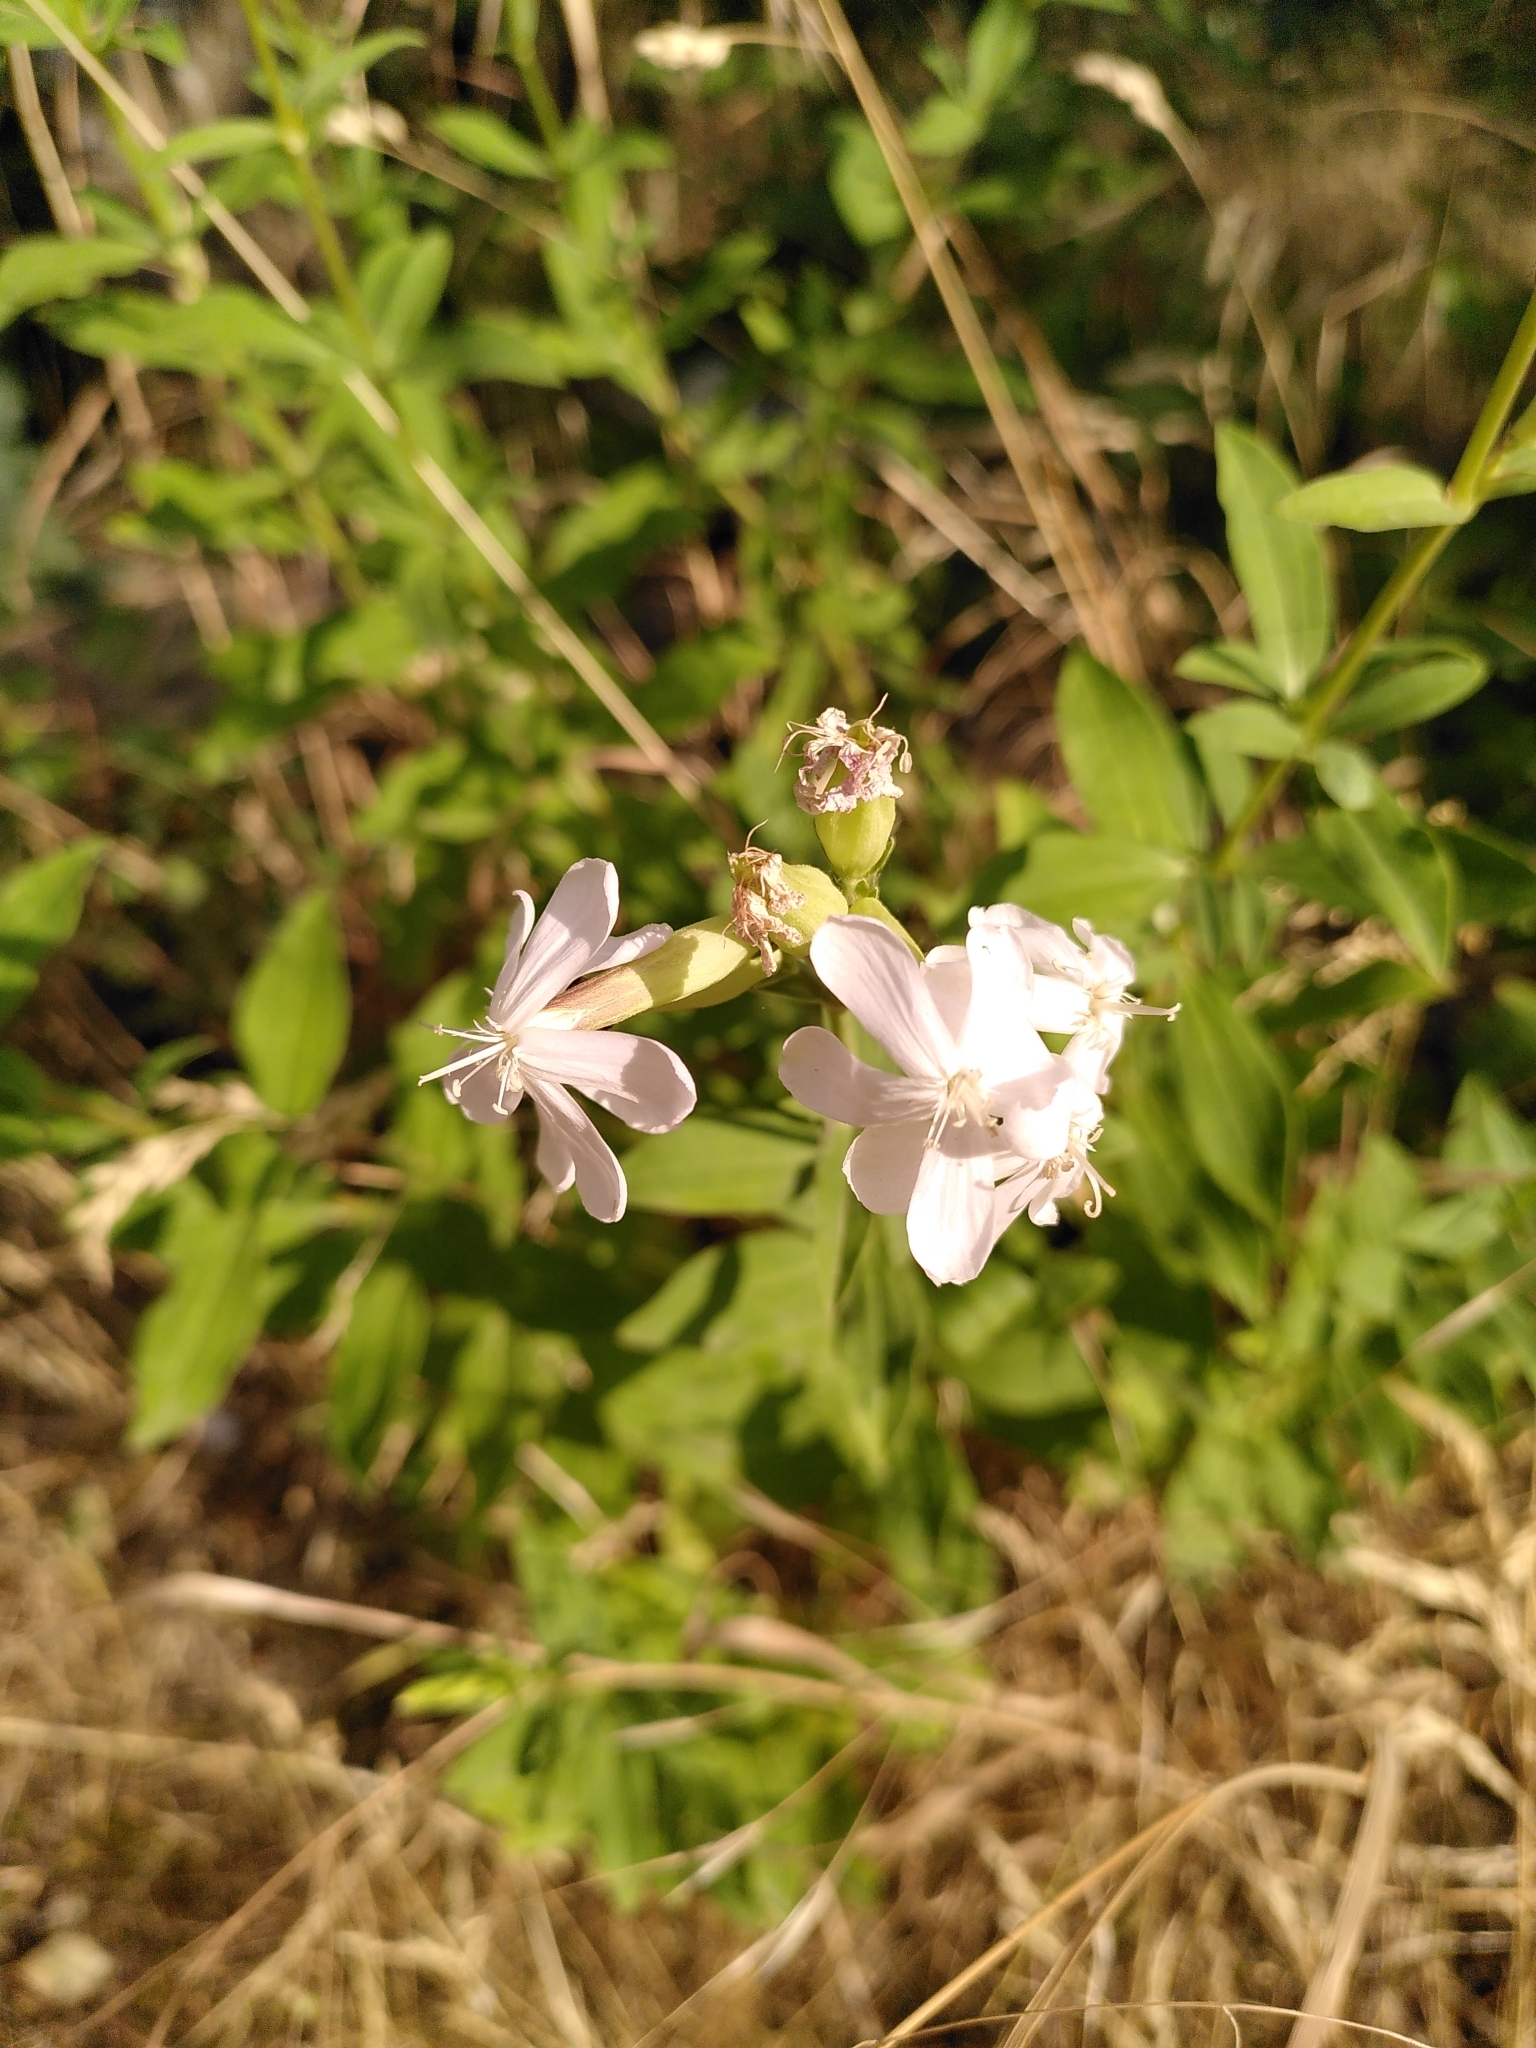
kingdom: Plantae
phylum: Tracheophyta
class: Magnoliopsida
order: Caryophyllales
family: Caryophyllaceae
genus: Saponaria
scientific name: Saponaria officinalis
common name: Soapwort
